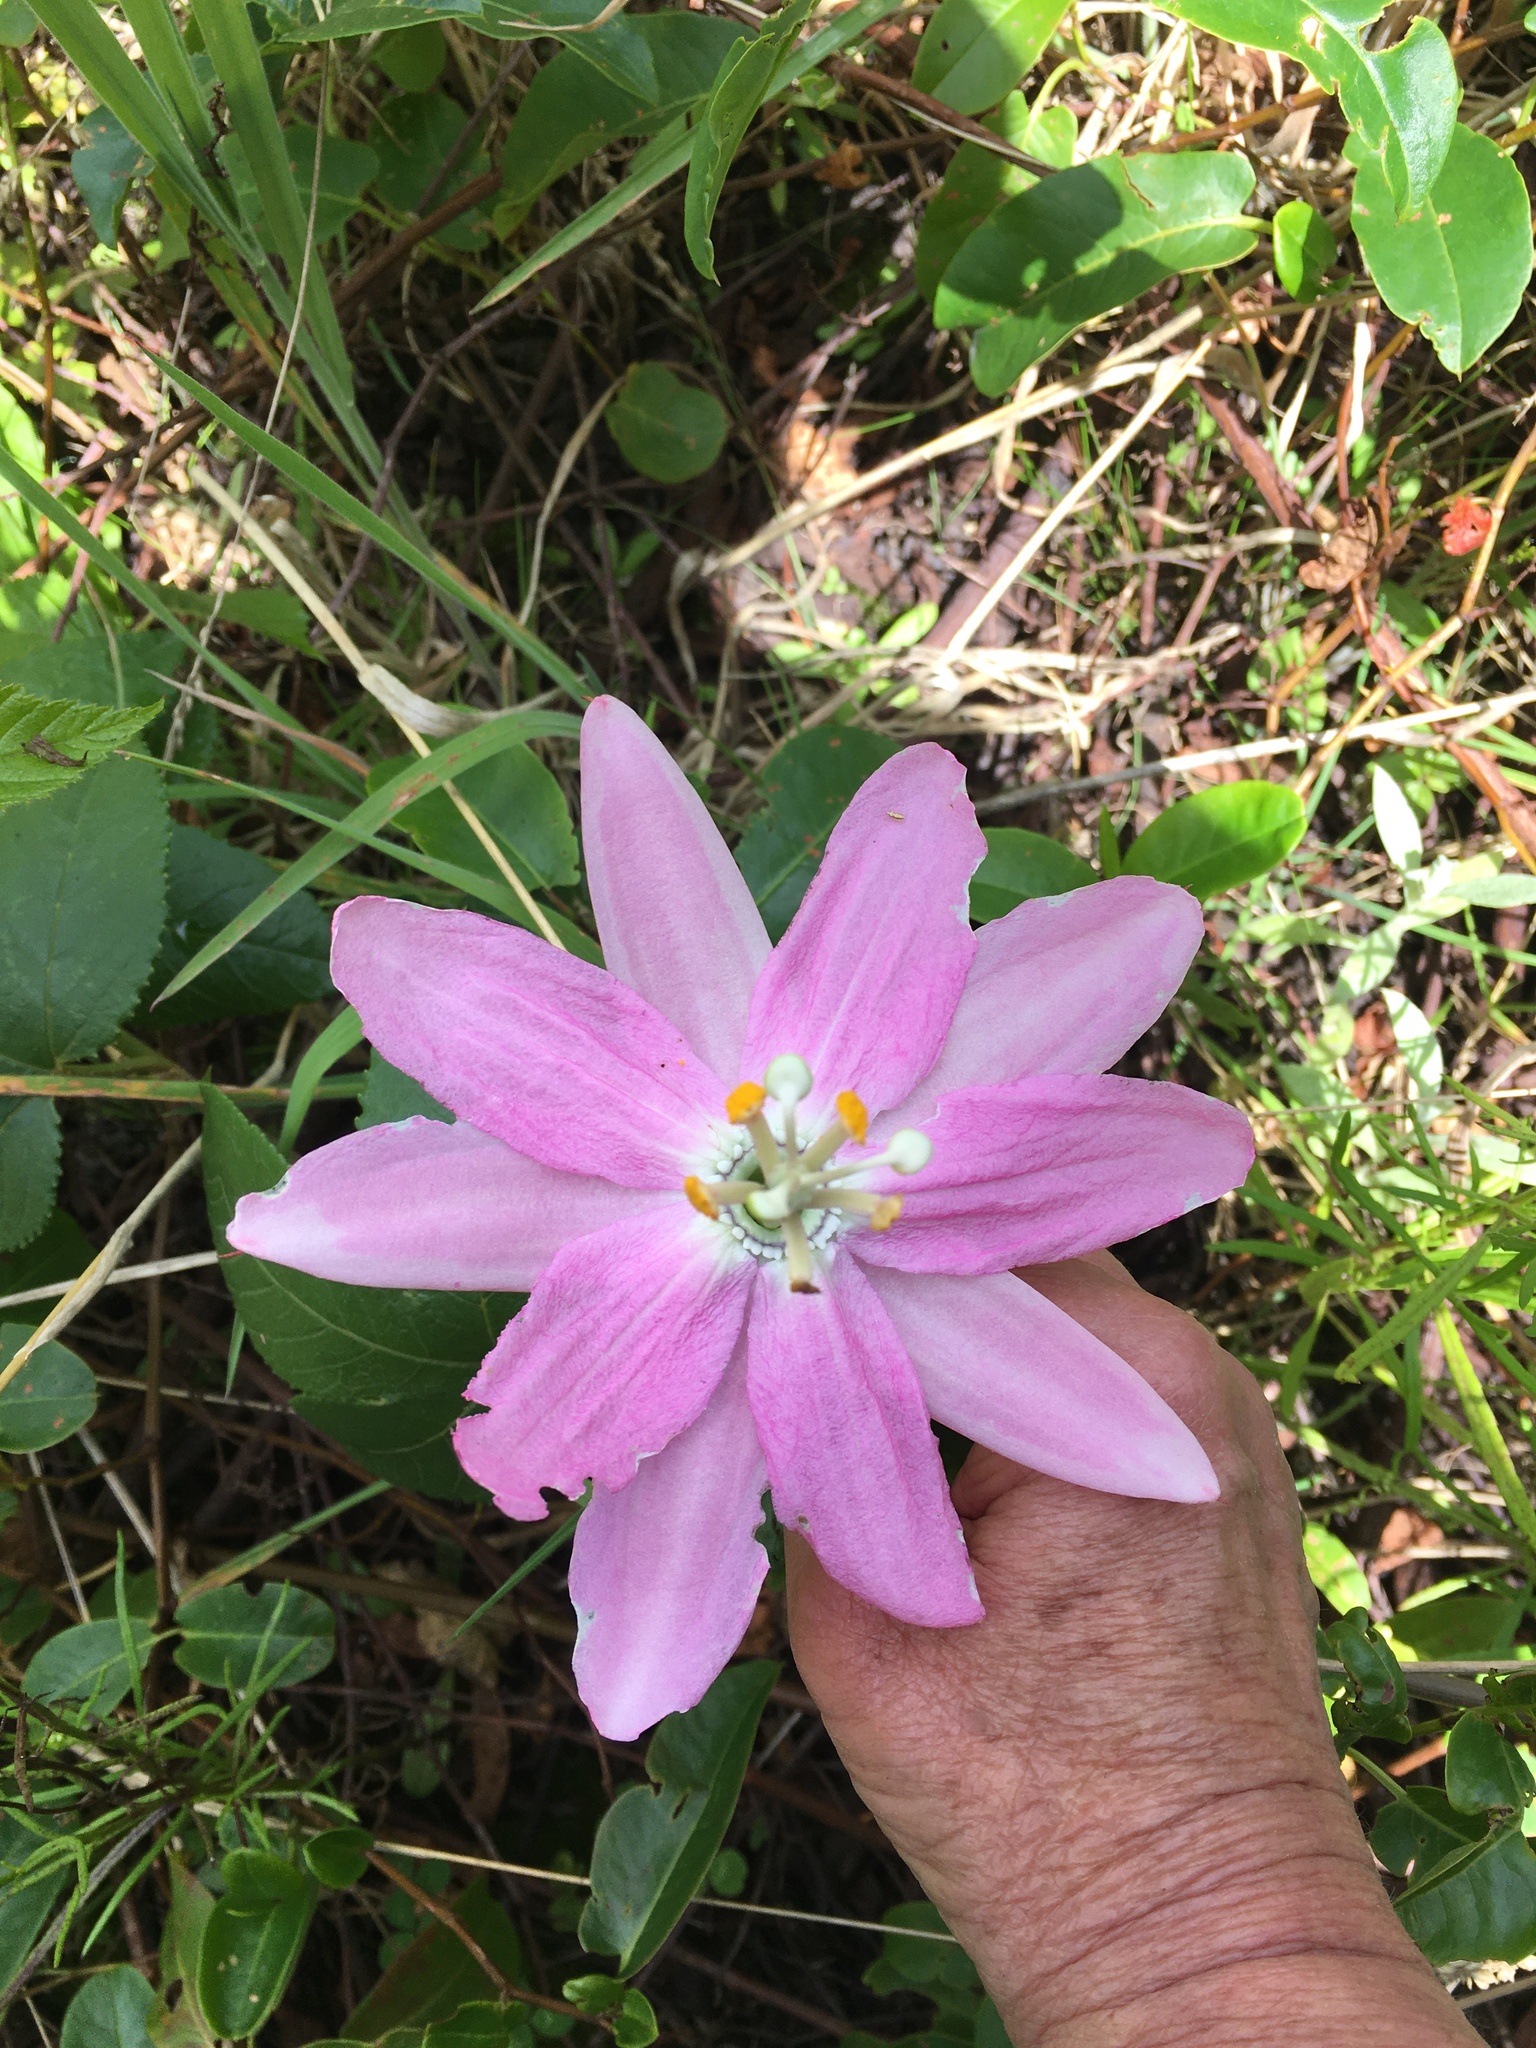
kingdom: Plantae
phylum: Tracheophyta
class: Magnoliopsida
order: Malpighiales
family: Passifloraceae
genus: Passiflora
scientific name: Passiflora tarminiana
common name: Banana poka
